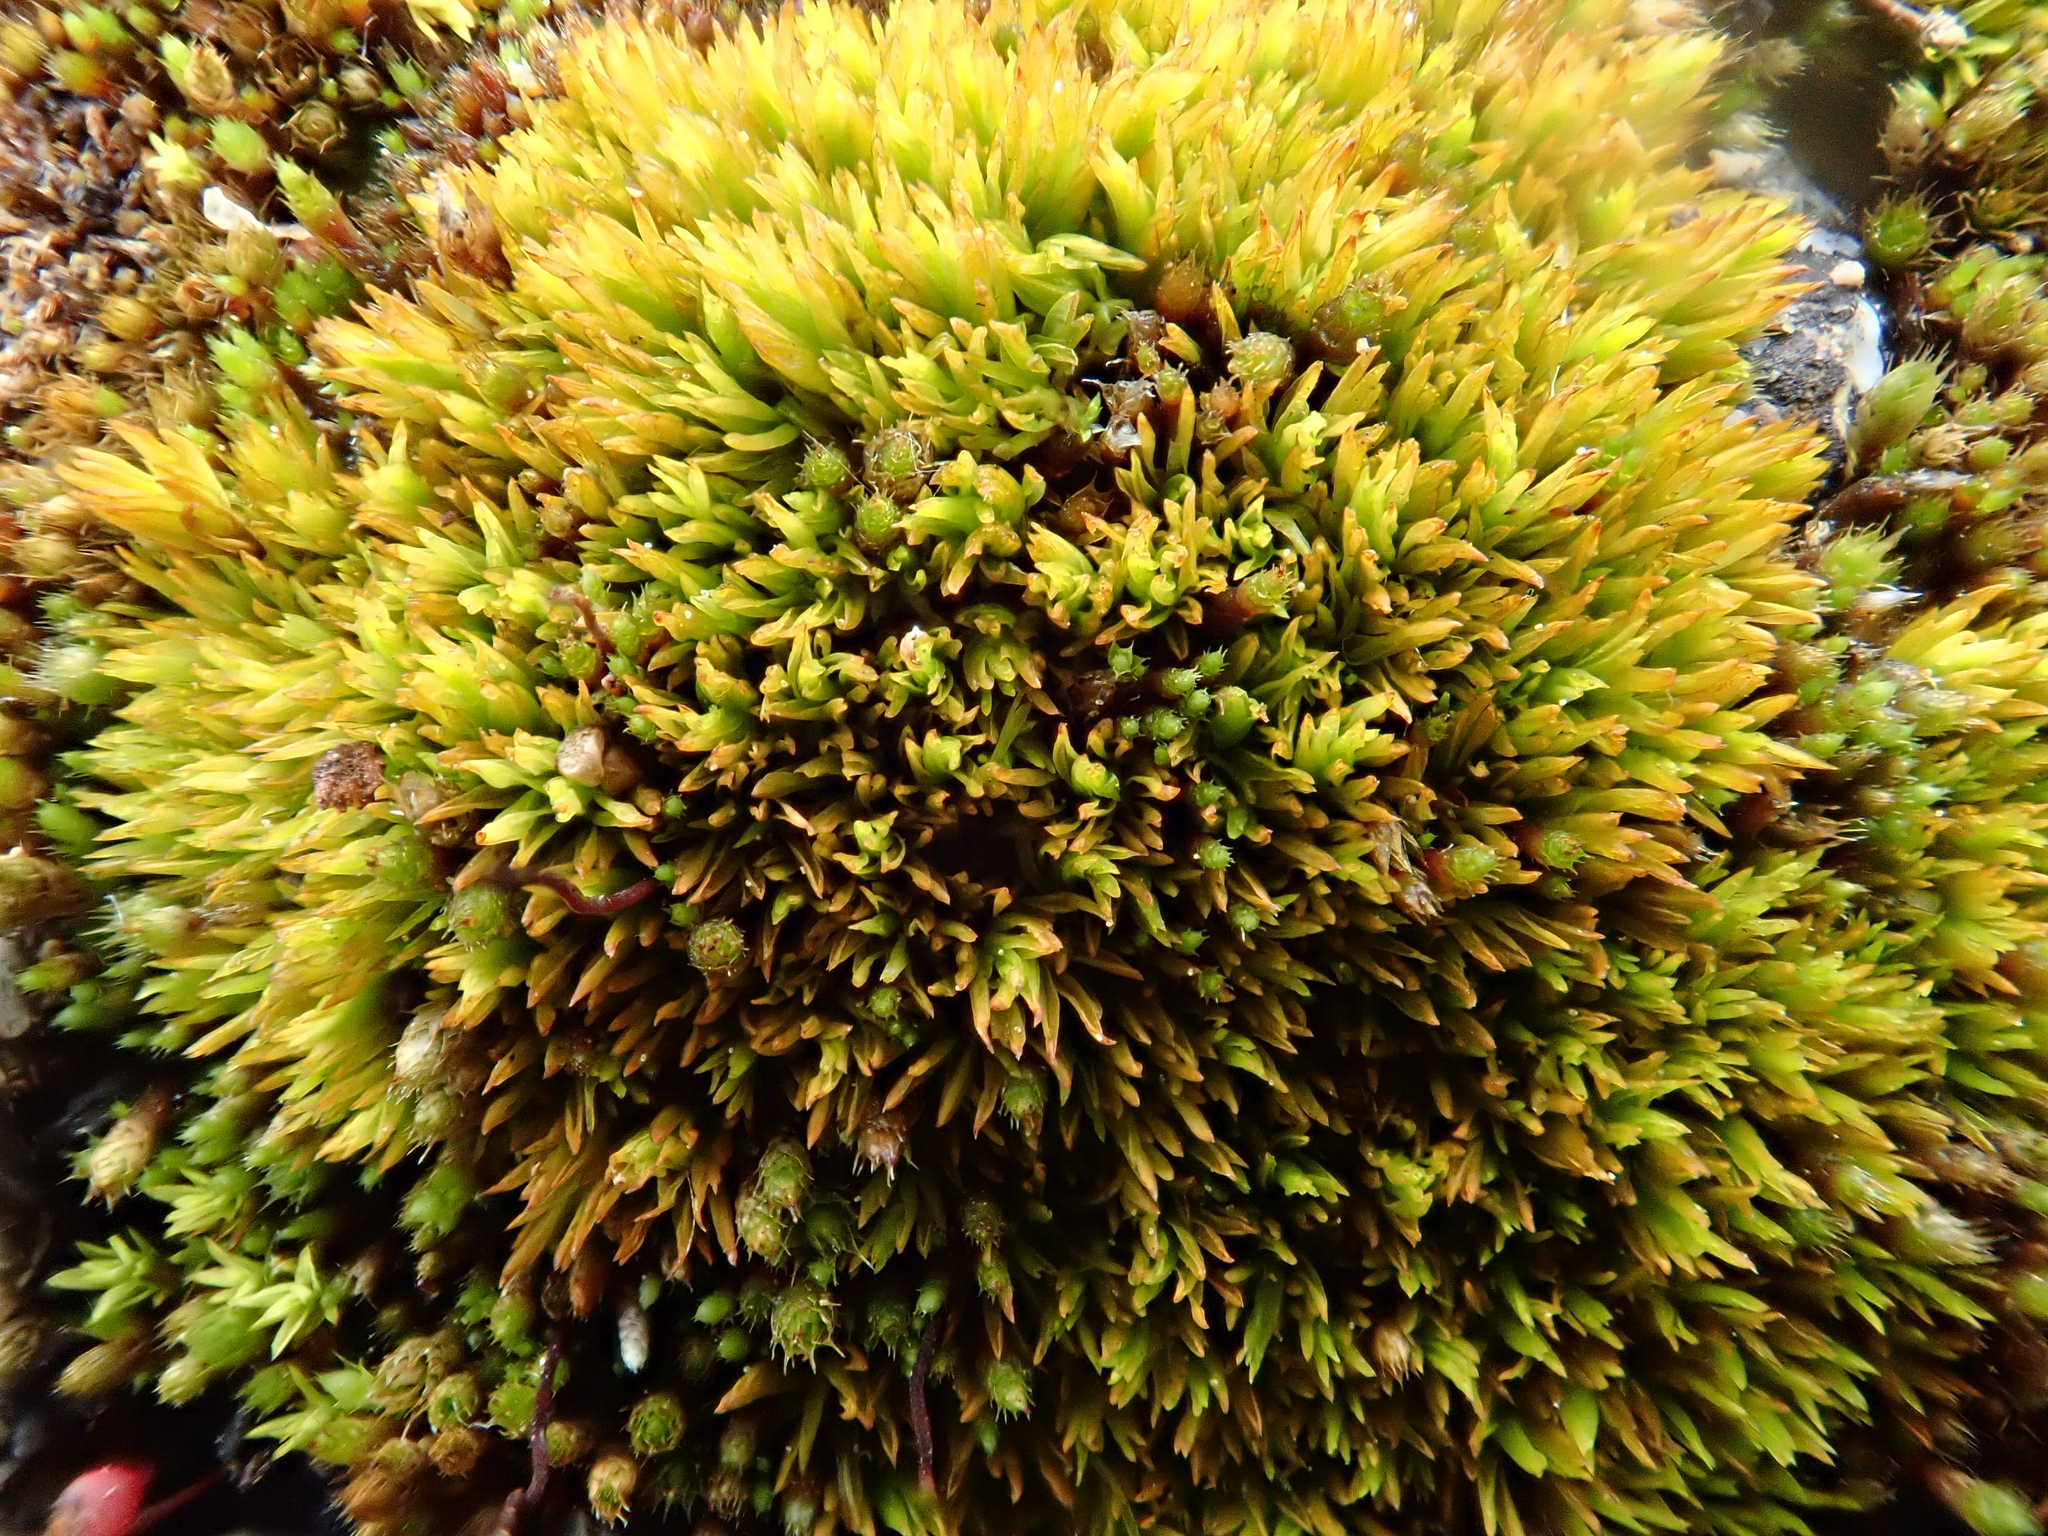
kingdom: Plantae
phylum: Bryophyta
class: Bryopsida
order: Pottiales
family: Pottiaceae
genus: Tortella
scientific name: Tortella inclinata
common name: Inclined twisted moss
